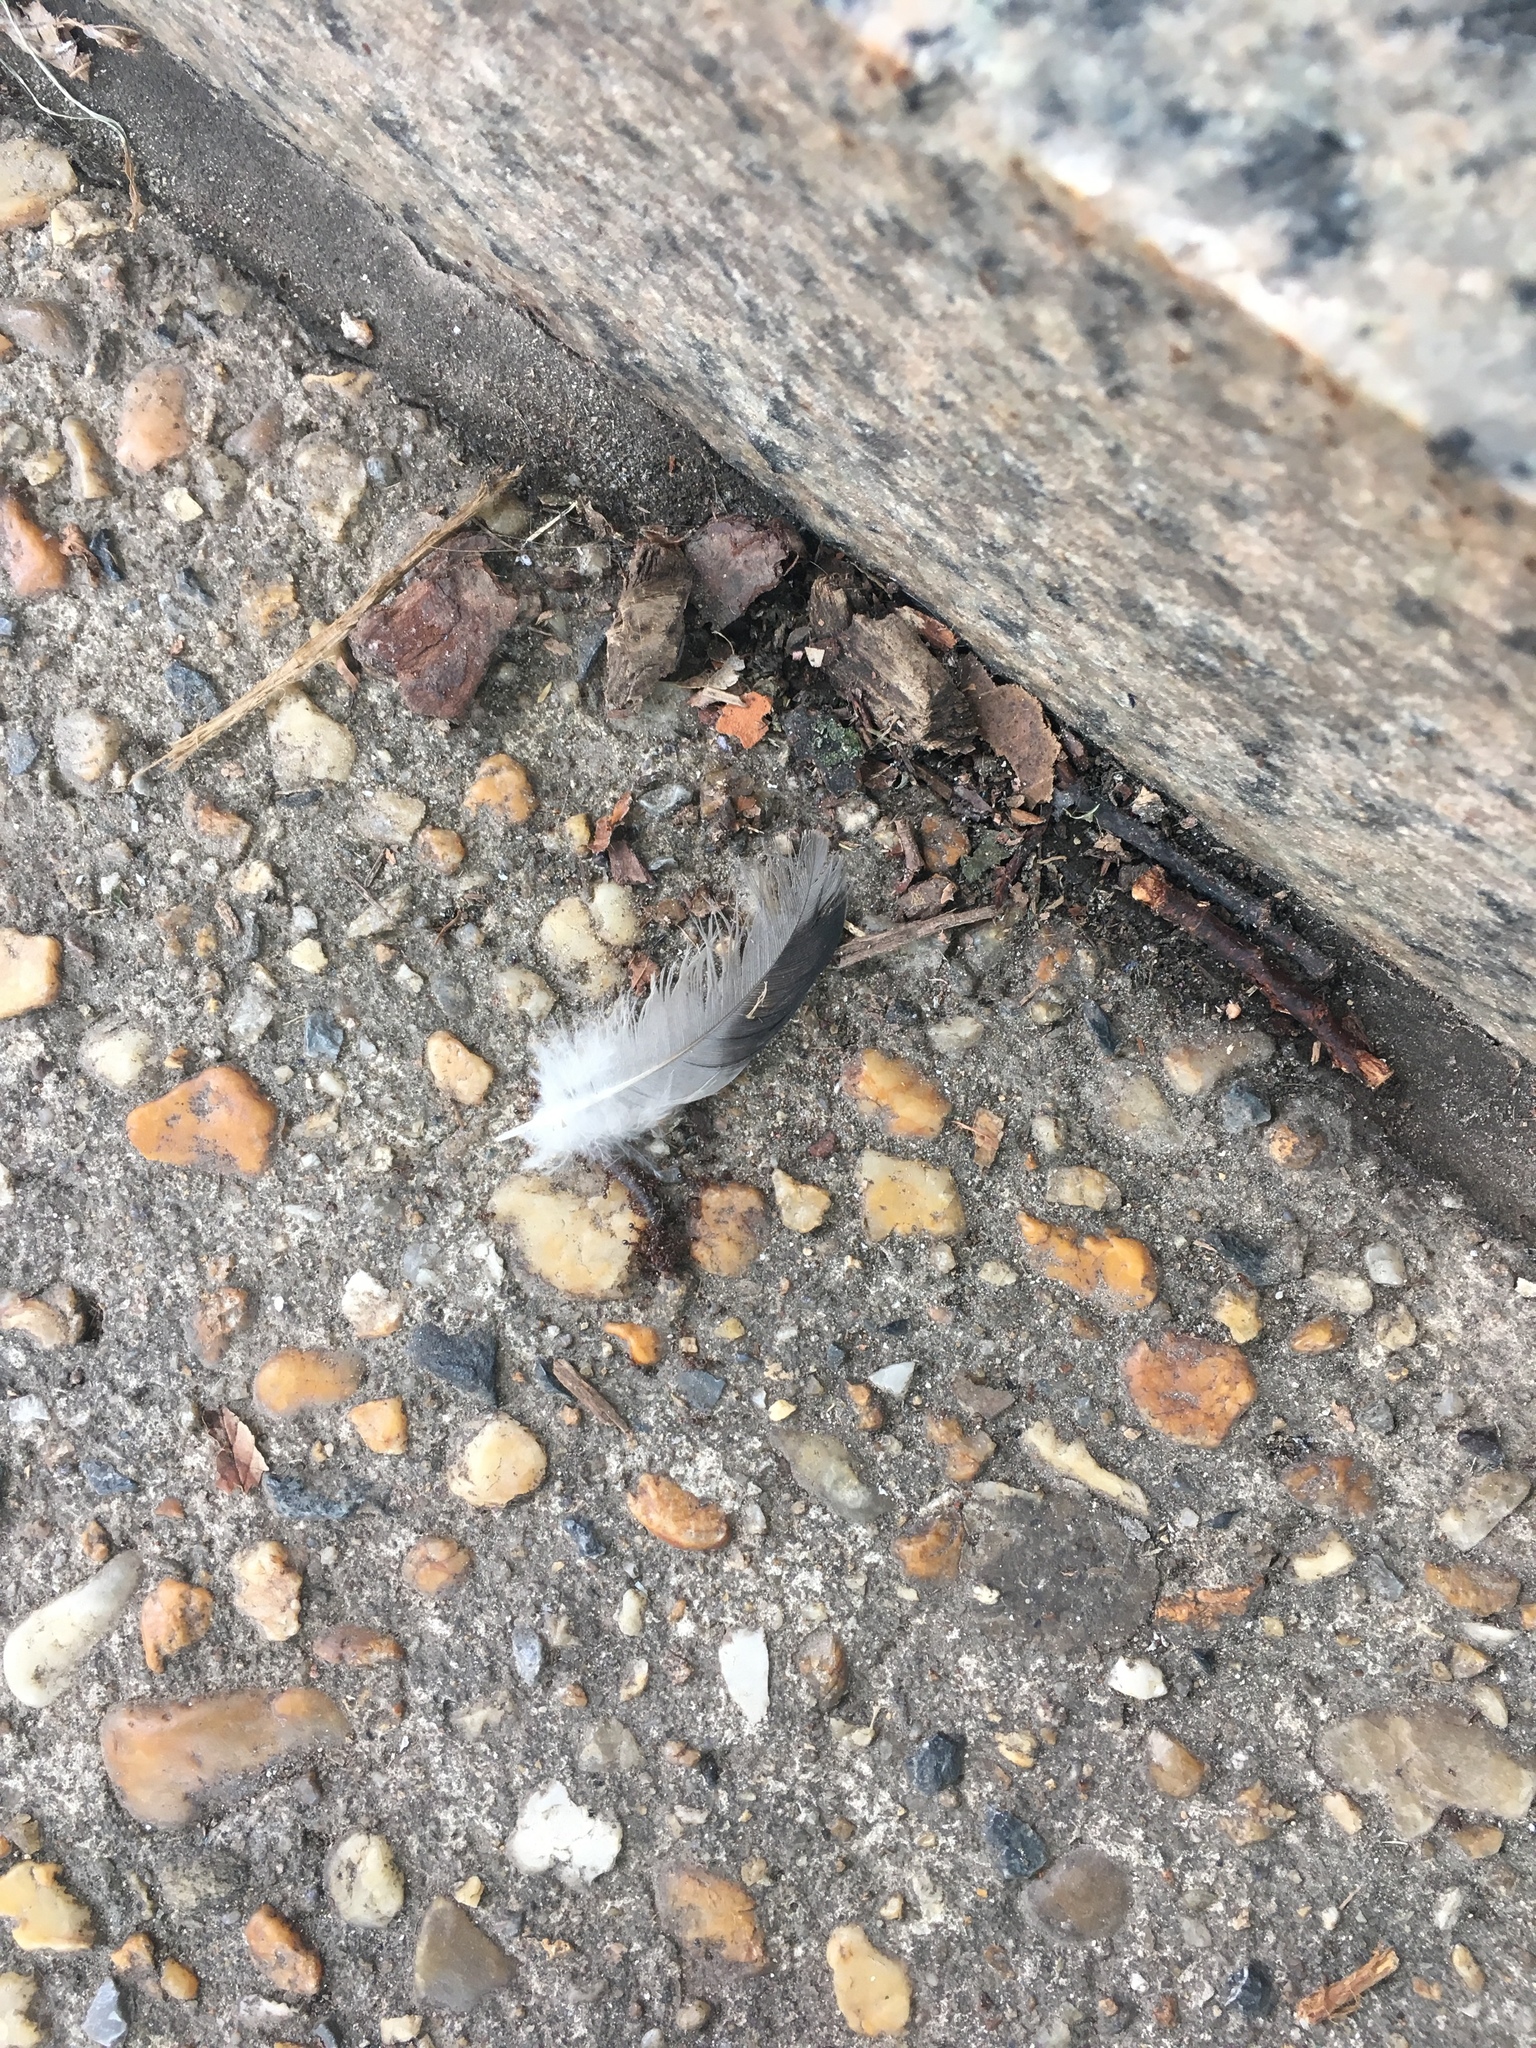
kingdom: Animalia
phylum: Chordata
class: Aves
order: Columbiformes
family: Columbidae
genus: Columba
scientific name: Columba livia
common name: Rock pigeon
